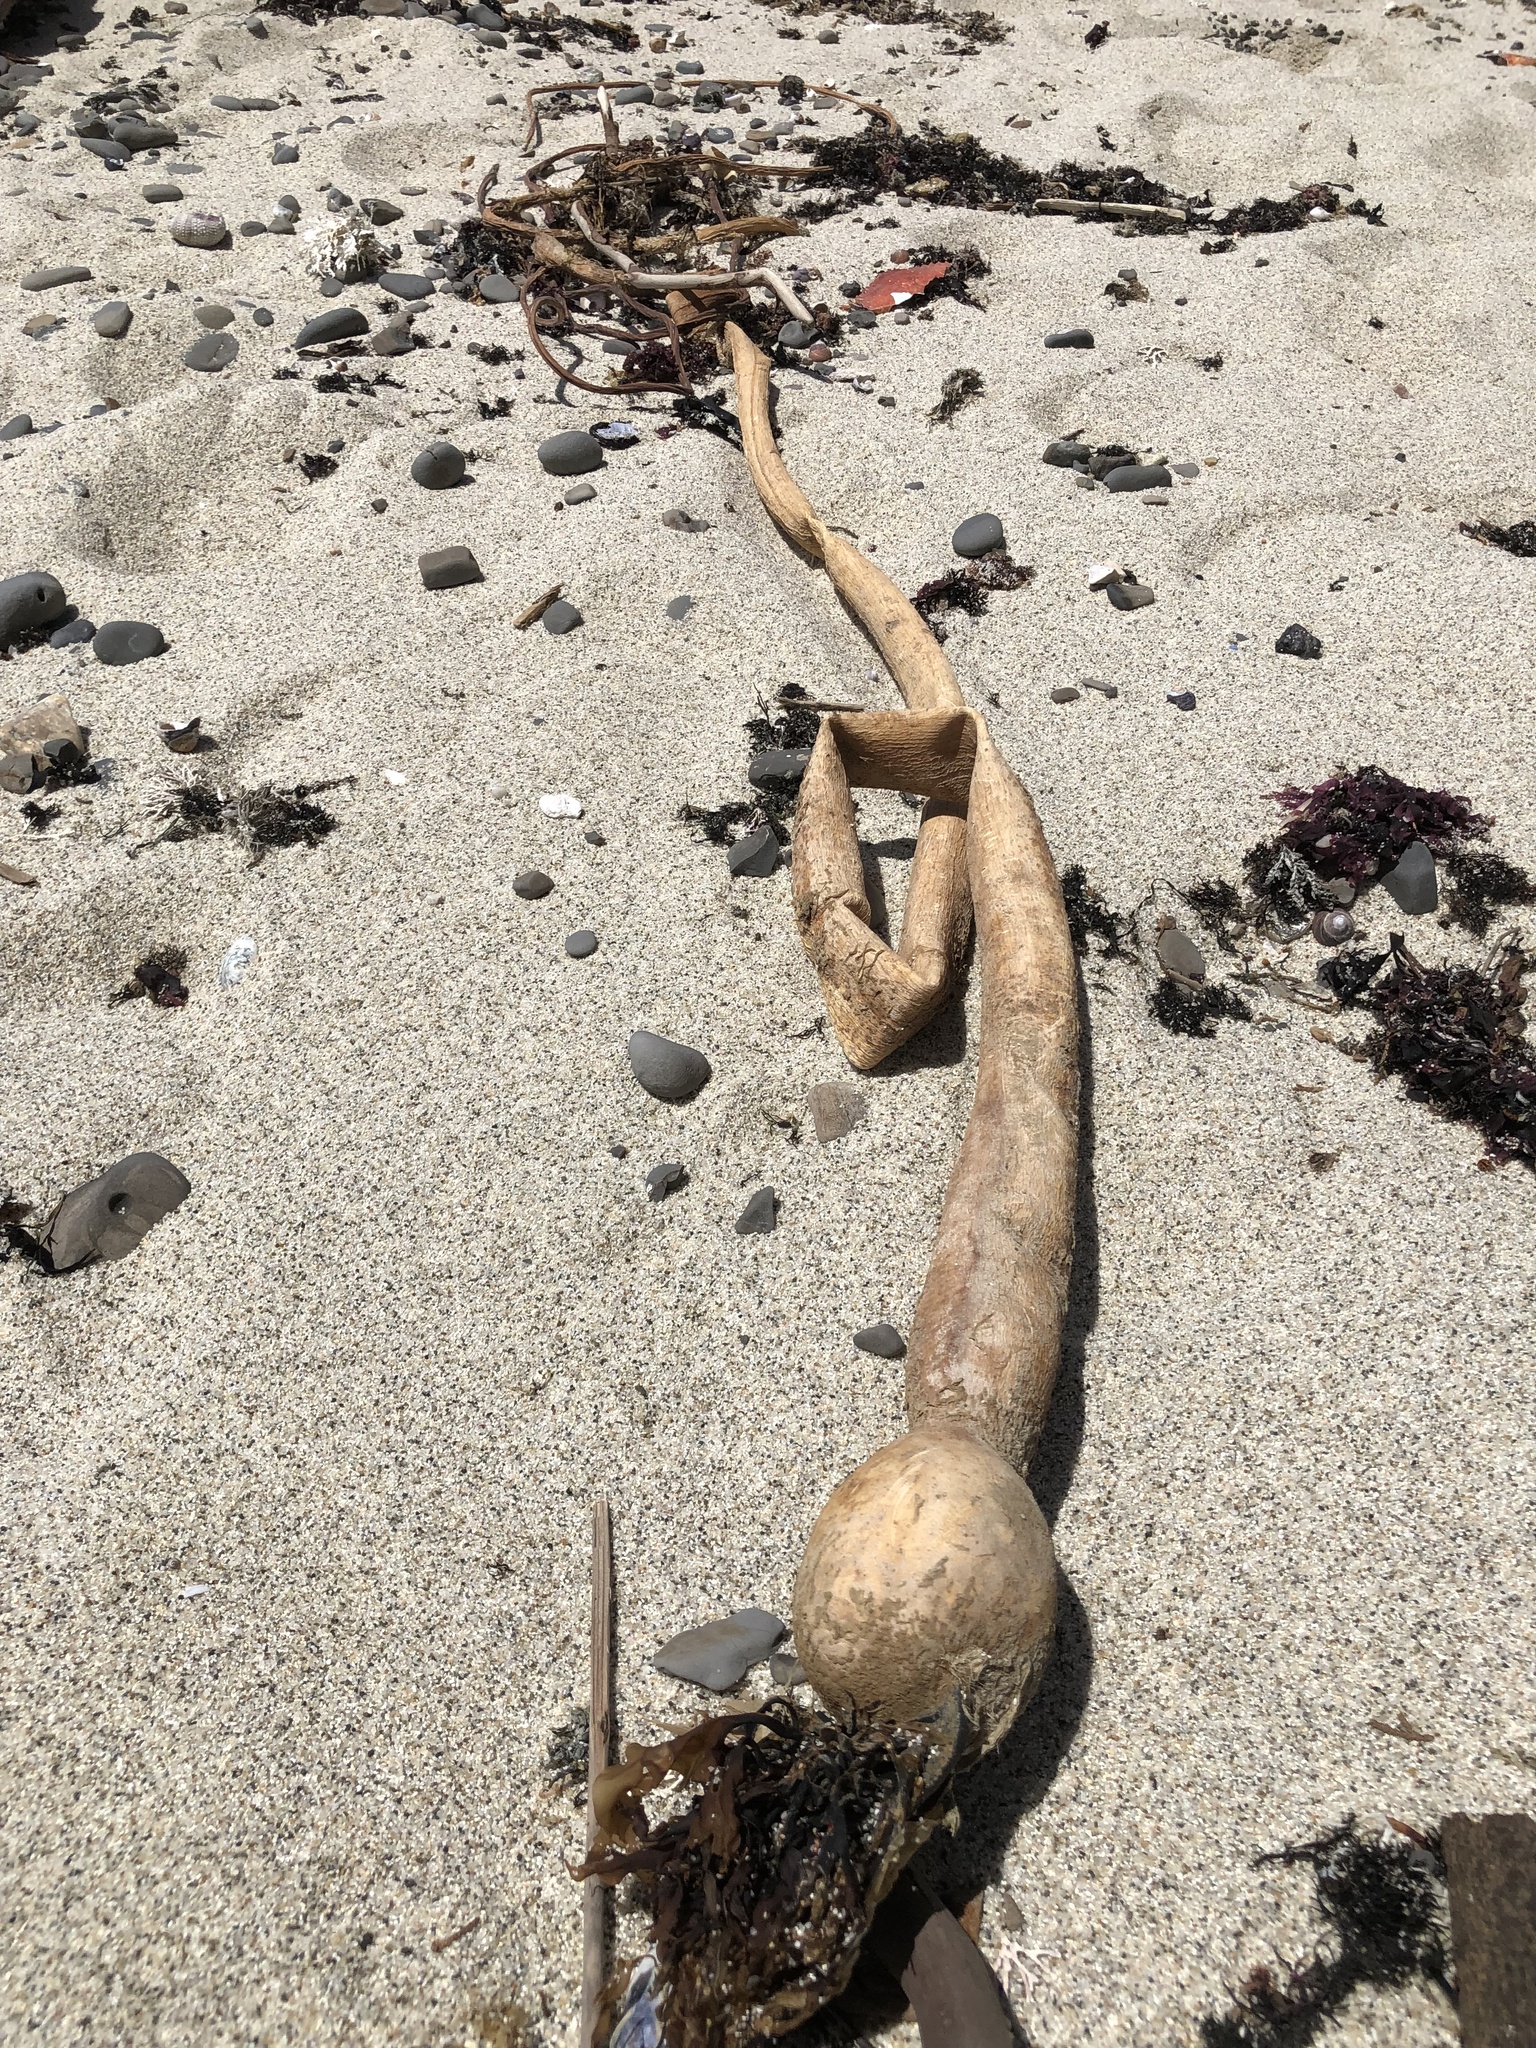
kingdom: Chromista
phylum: Ochrophyta
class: Phaeophyceae
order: Laminariales
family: Laminariaceae
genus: Nereocystis
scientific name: Nereocystis luetkeana
